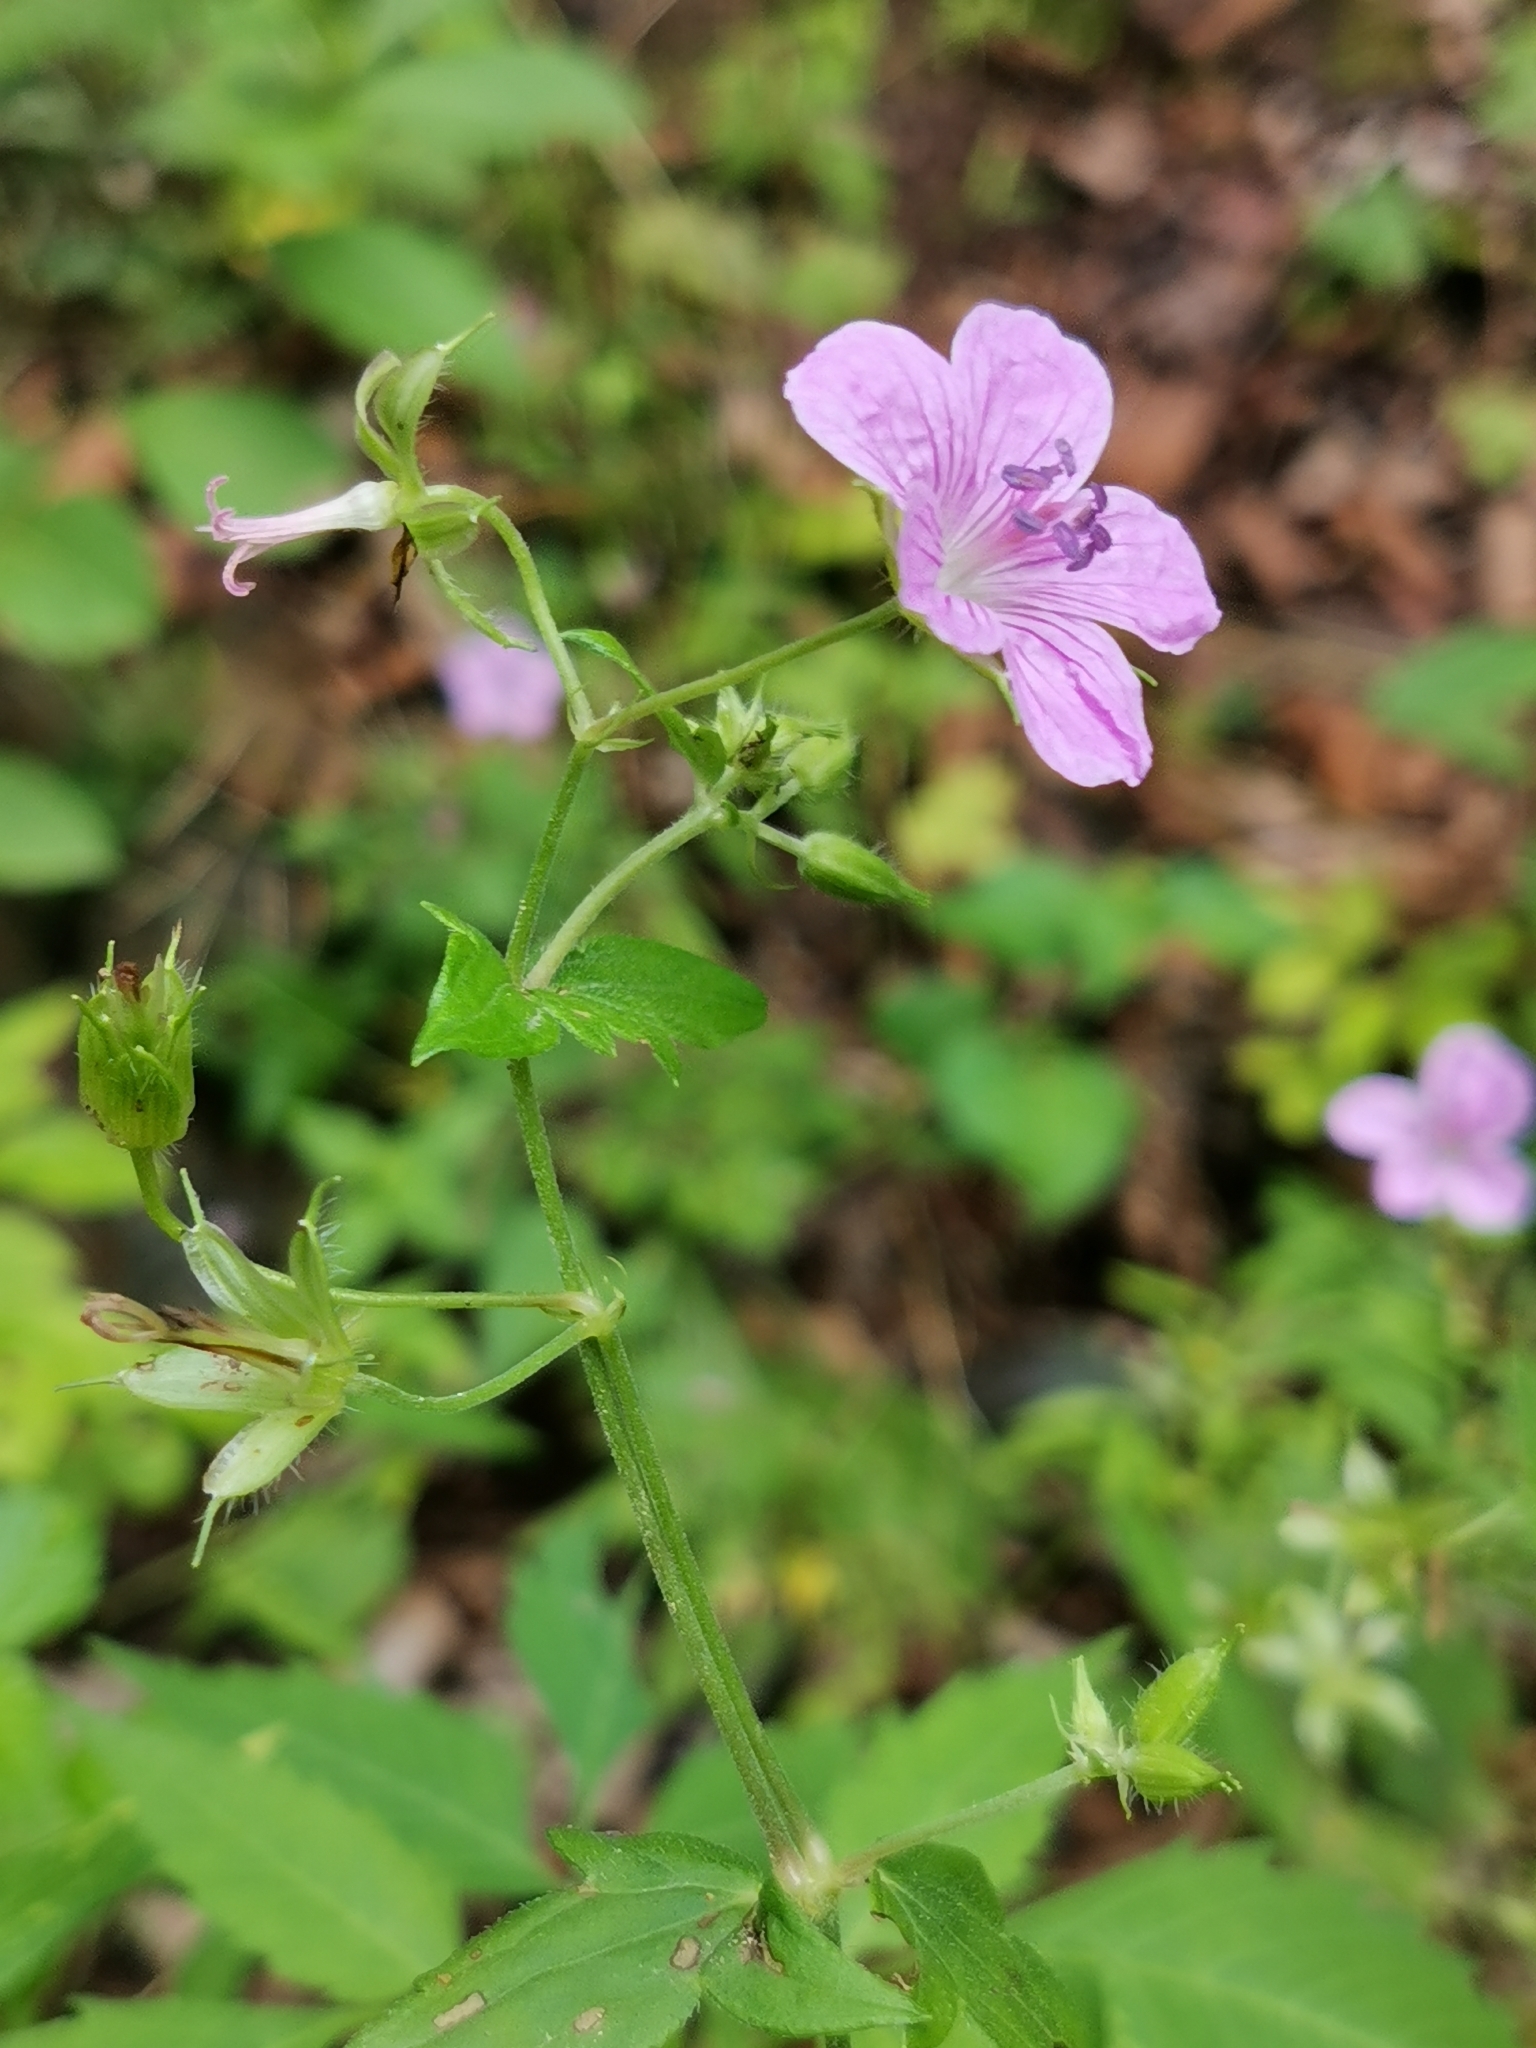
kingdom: Plantae
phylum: Tracheophyta
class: Magnoliopsida
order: Geraniales
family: Geraniaceae
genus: Geranium
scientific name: Geranium maximowiczii
